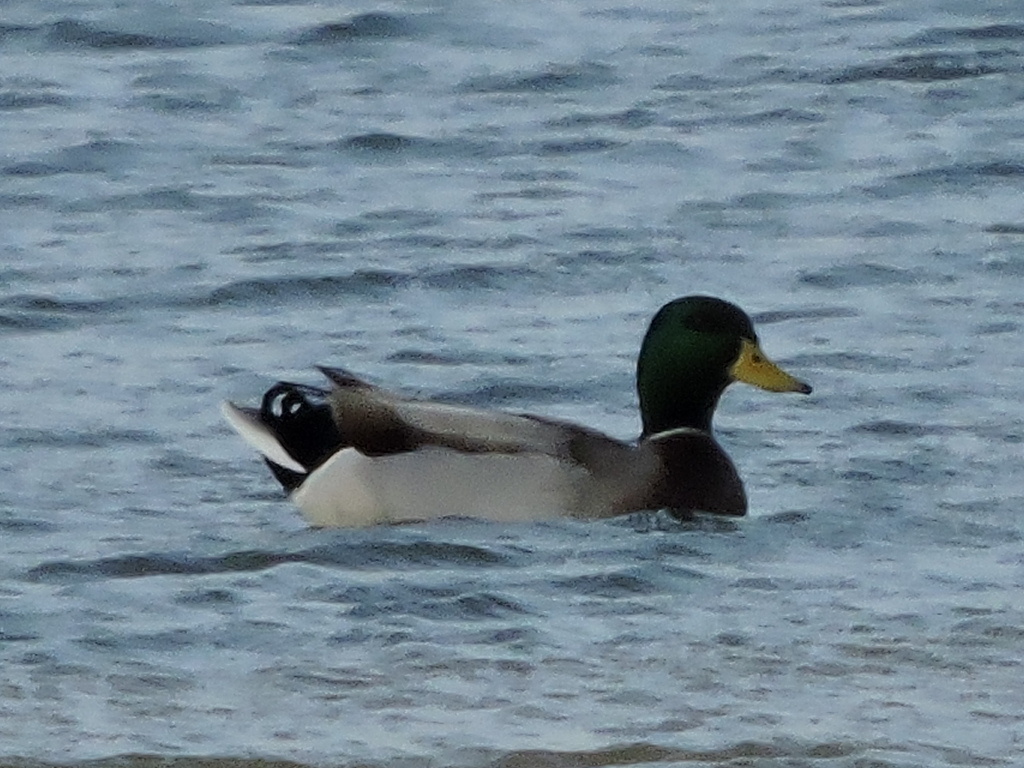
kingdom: Animalia
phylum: Chordata
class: Aves
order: Anseriformes
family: Anatidae
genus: Anas
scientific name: Anas platyrhynchos
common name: Mallard
